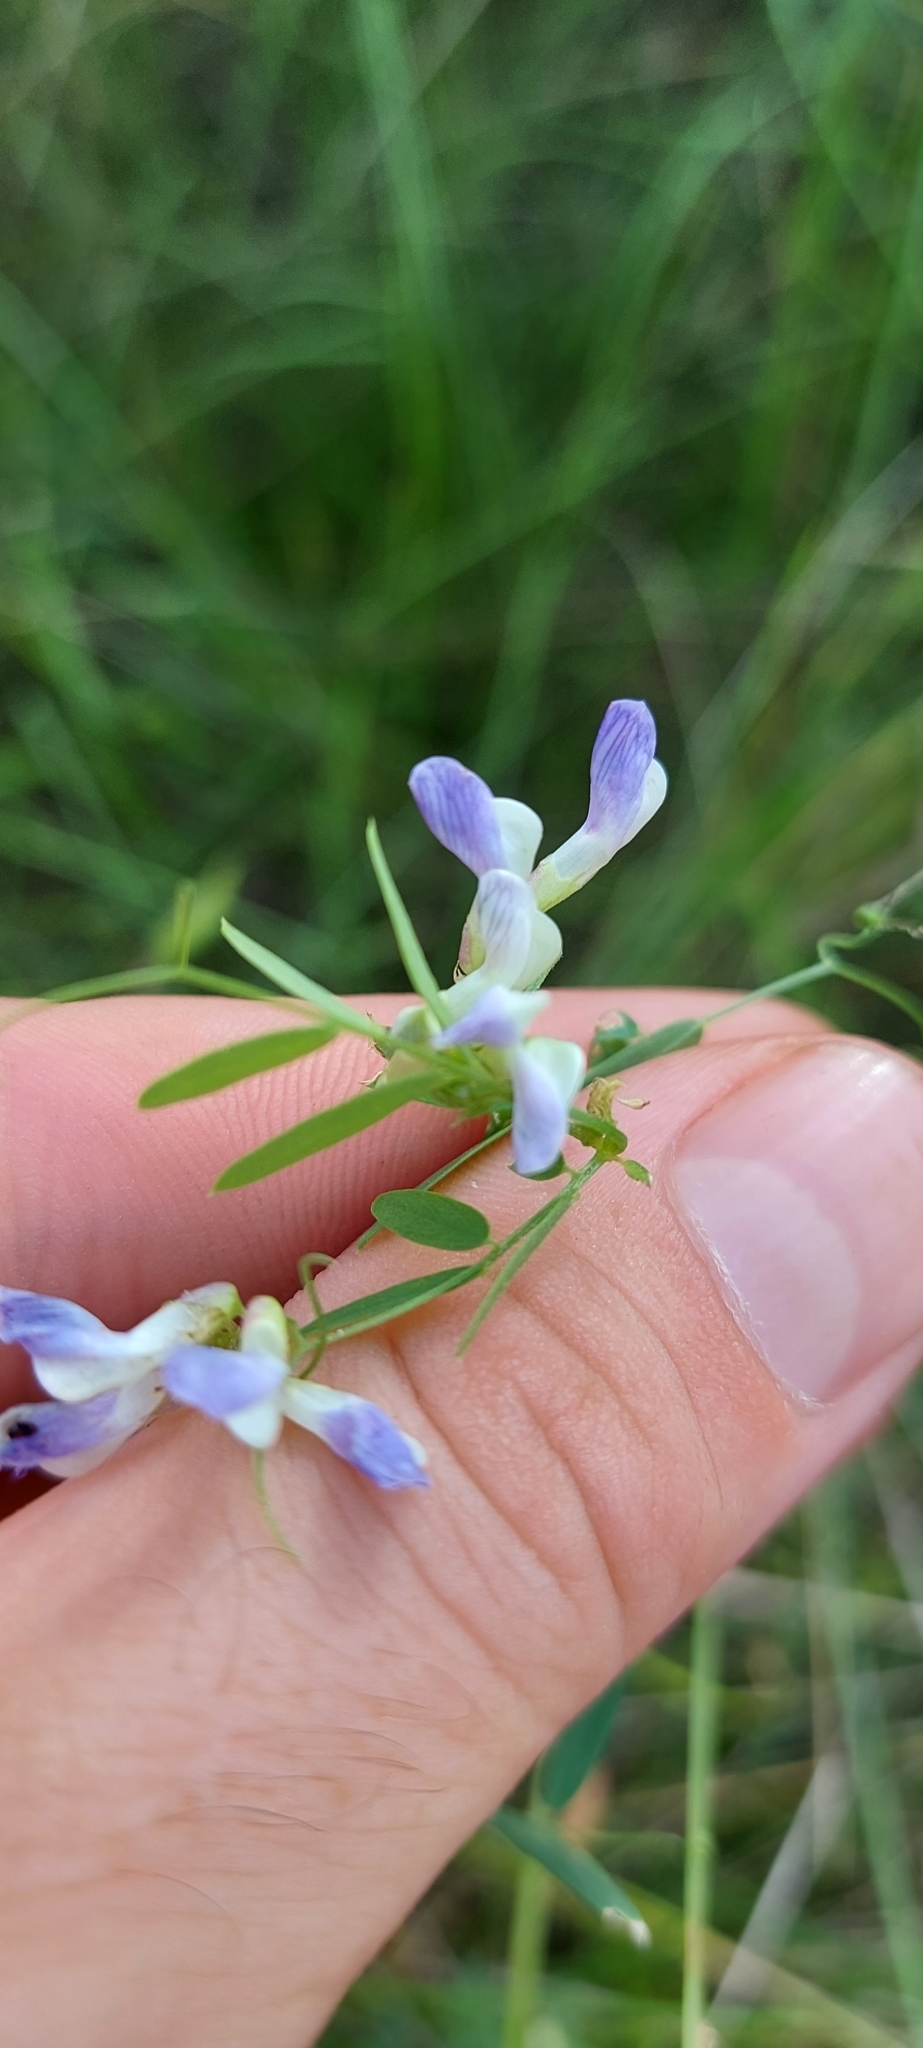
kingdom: Plantae
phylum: Tracheophyta
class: Magnoliopsida
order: Fabales
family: Fabaceae
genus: Vicia
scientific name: Vicia biennis
